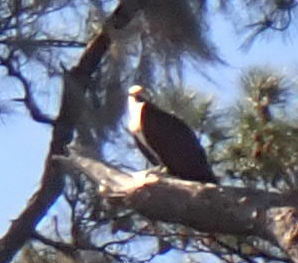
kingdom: Animalia
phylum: Chordata
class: Aves
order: Accipitriformes
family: Pandionidae
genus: Pandion
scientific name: Pandion haliaetus
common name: Osprey
